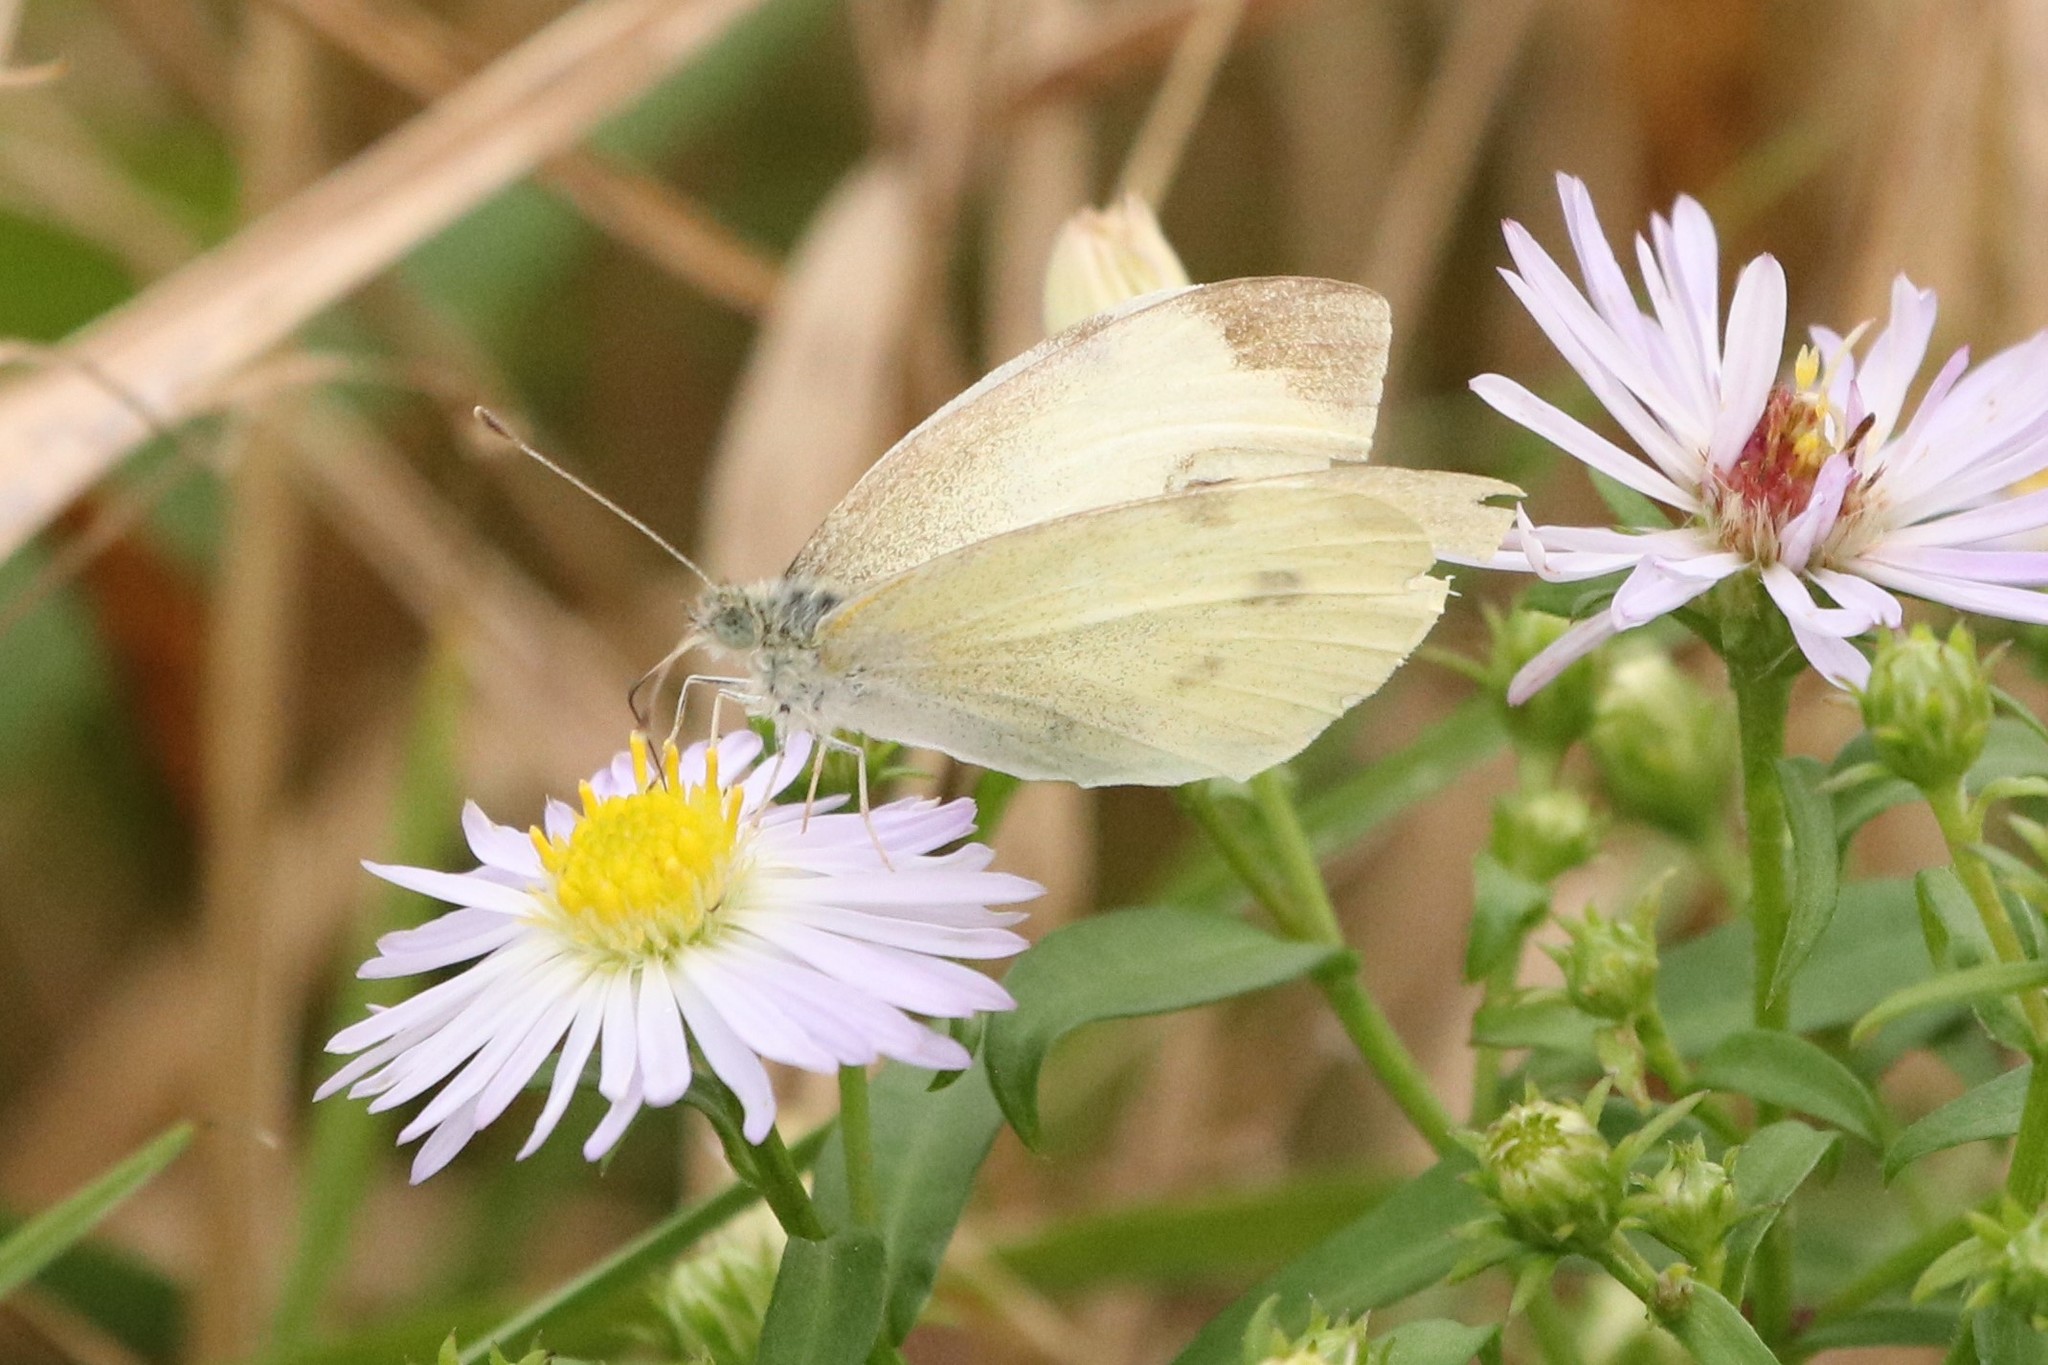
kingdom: Animalia
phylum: Arthropoda
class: Insecta
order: Lepidoptera
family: Pieridae
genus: Pieris
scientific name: Pieris rapae
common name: Small white
